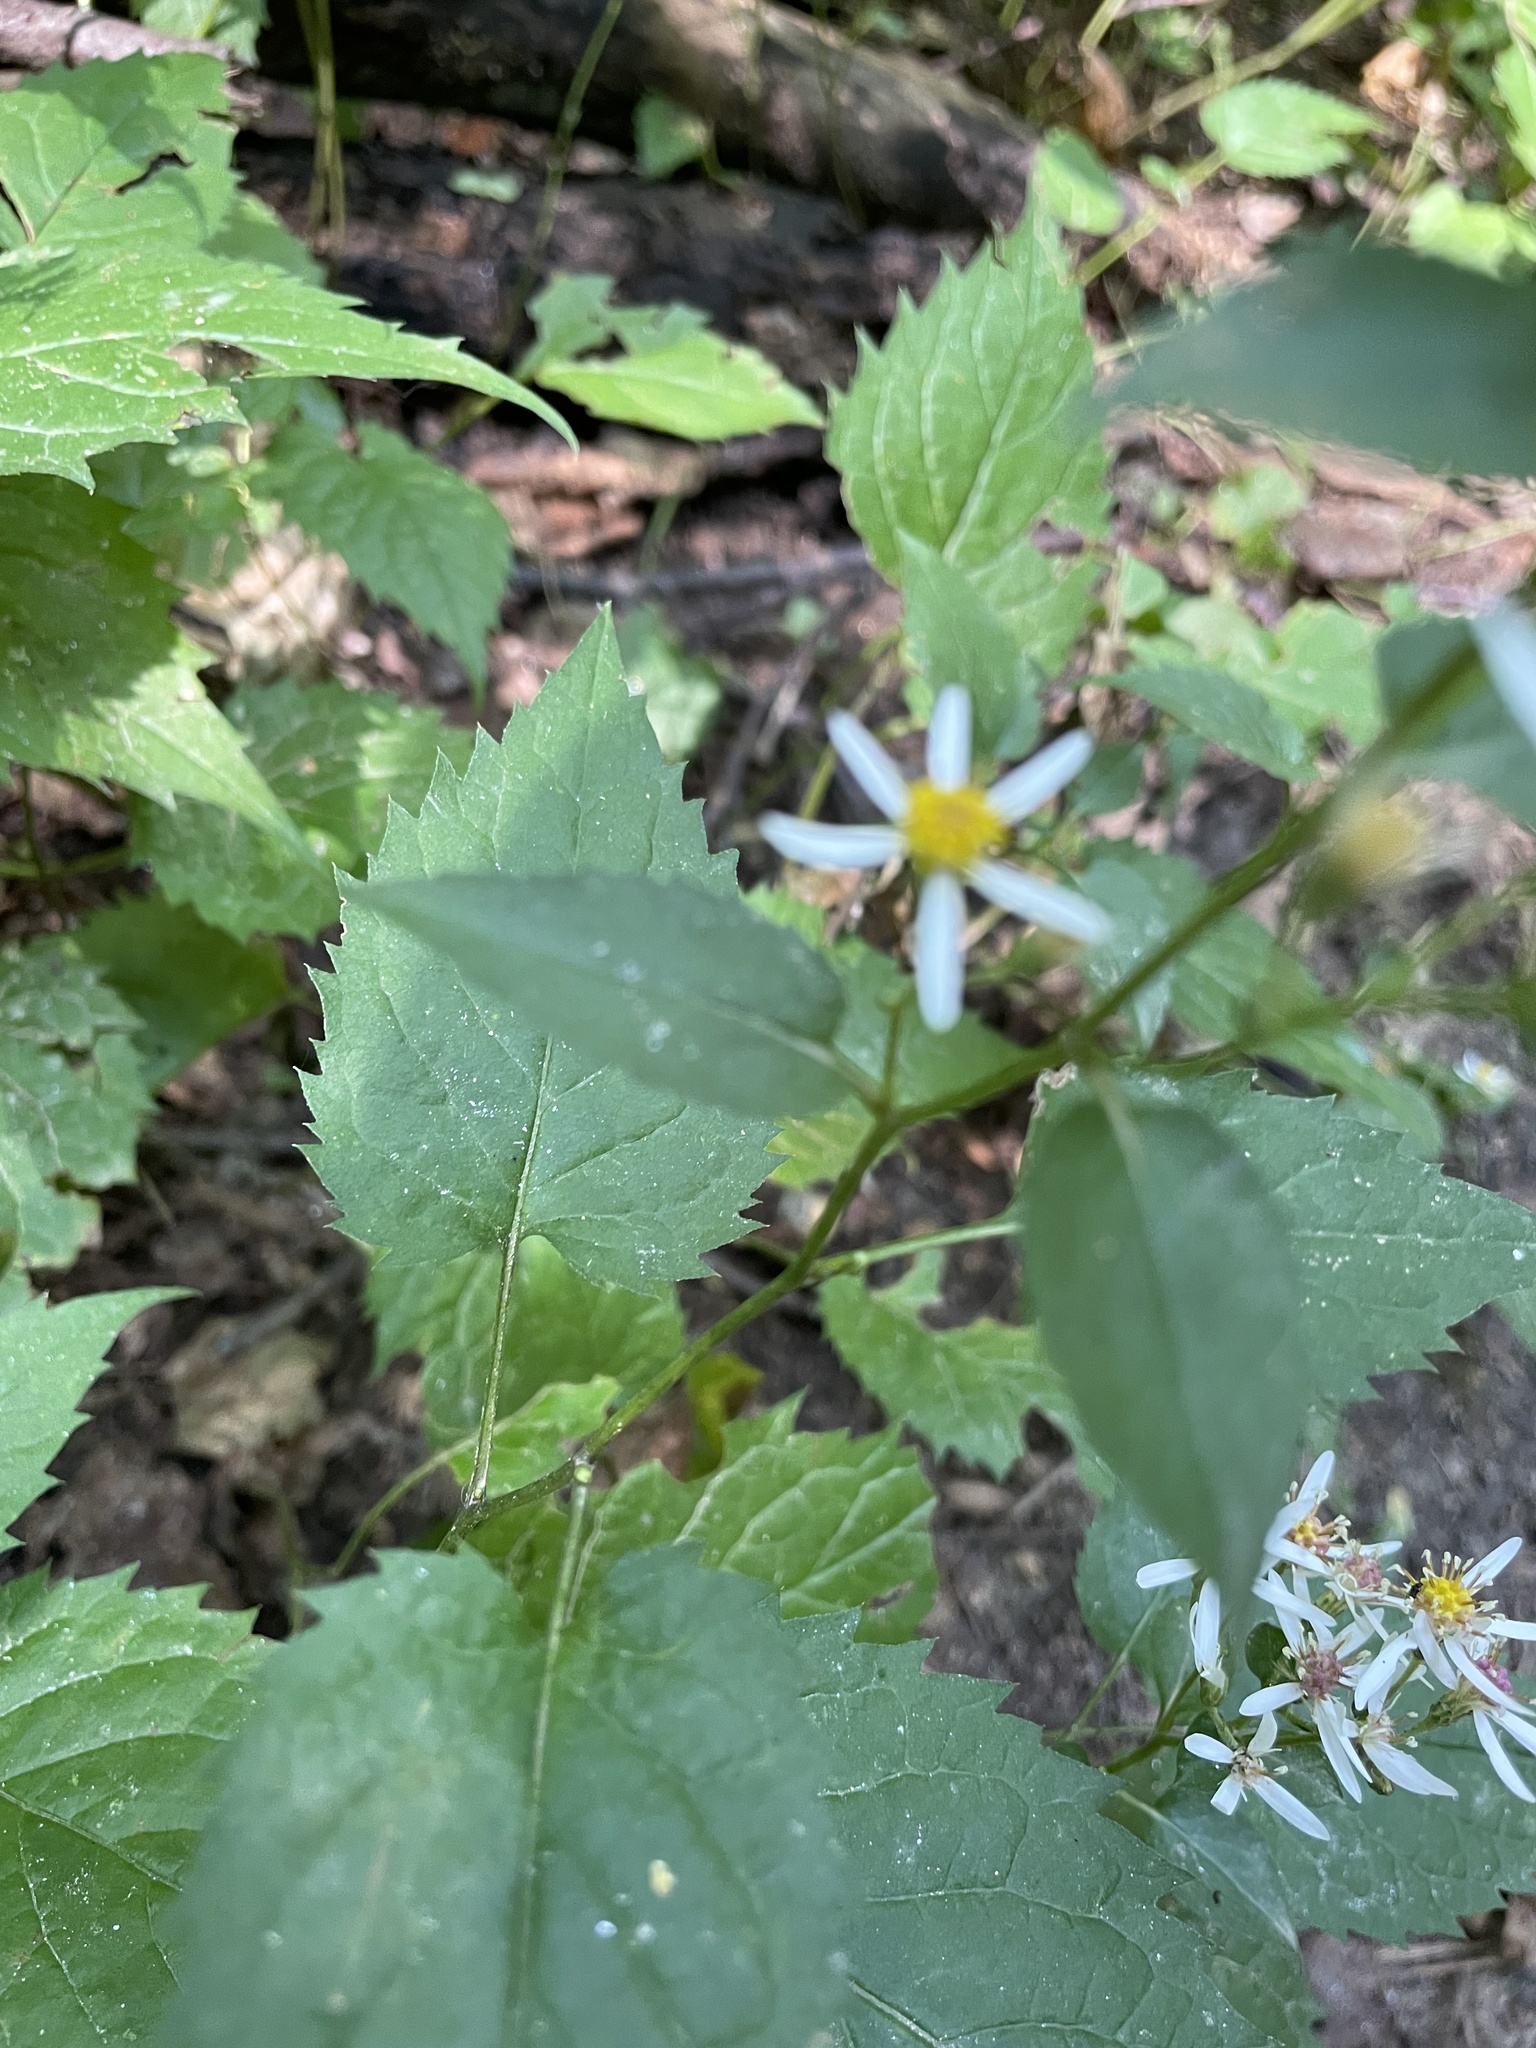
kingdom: Plantae
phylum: Tracheophyta
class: Magnoliopsida
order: Asterales
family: Asteraceae
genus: Eurybia
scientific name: Eurybia divaricata
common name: White wood aster
